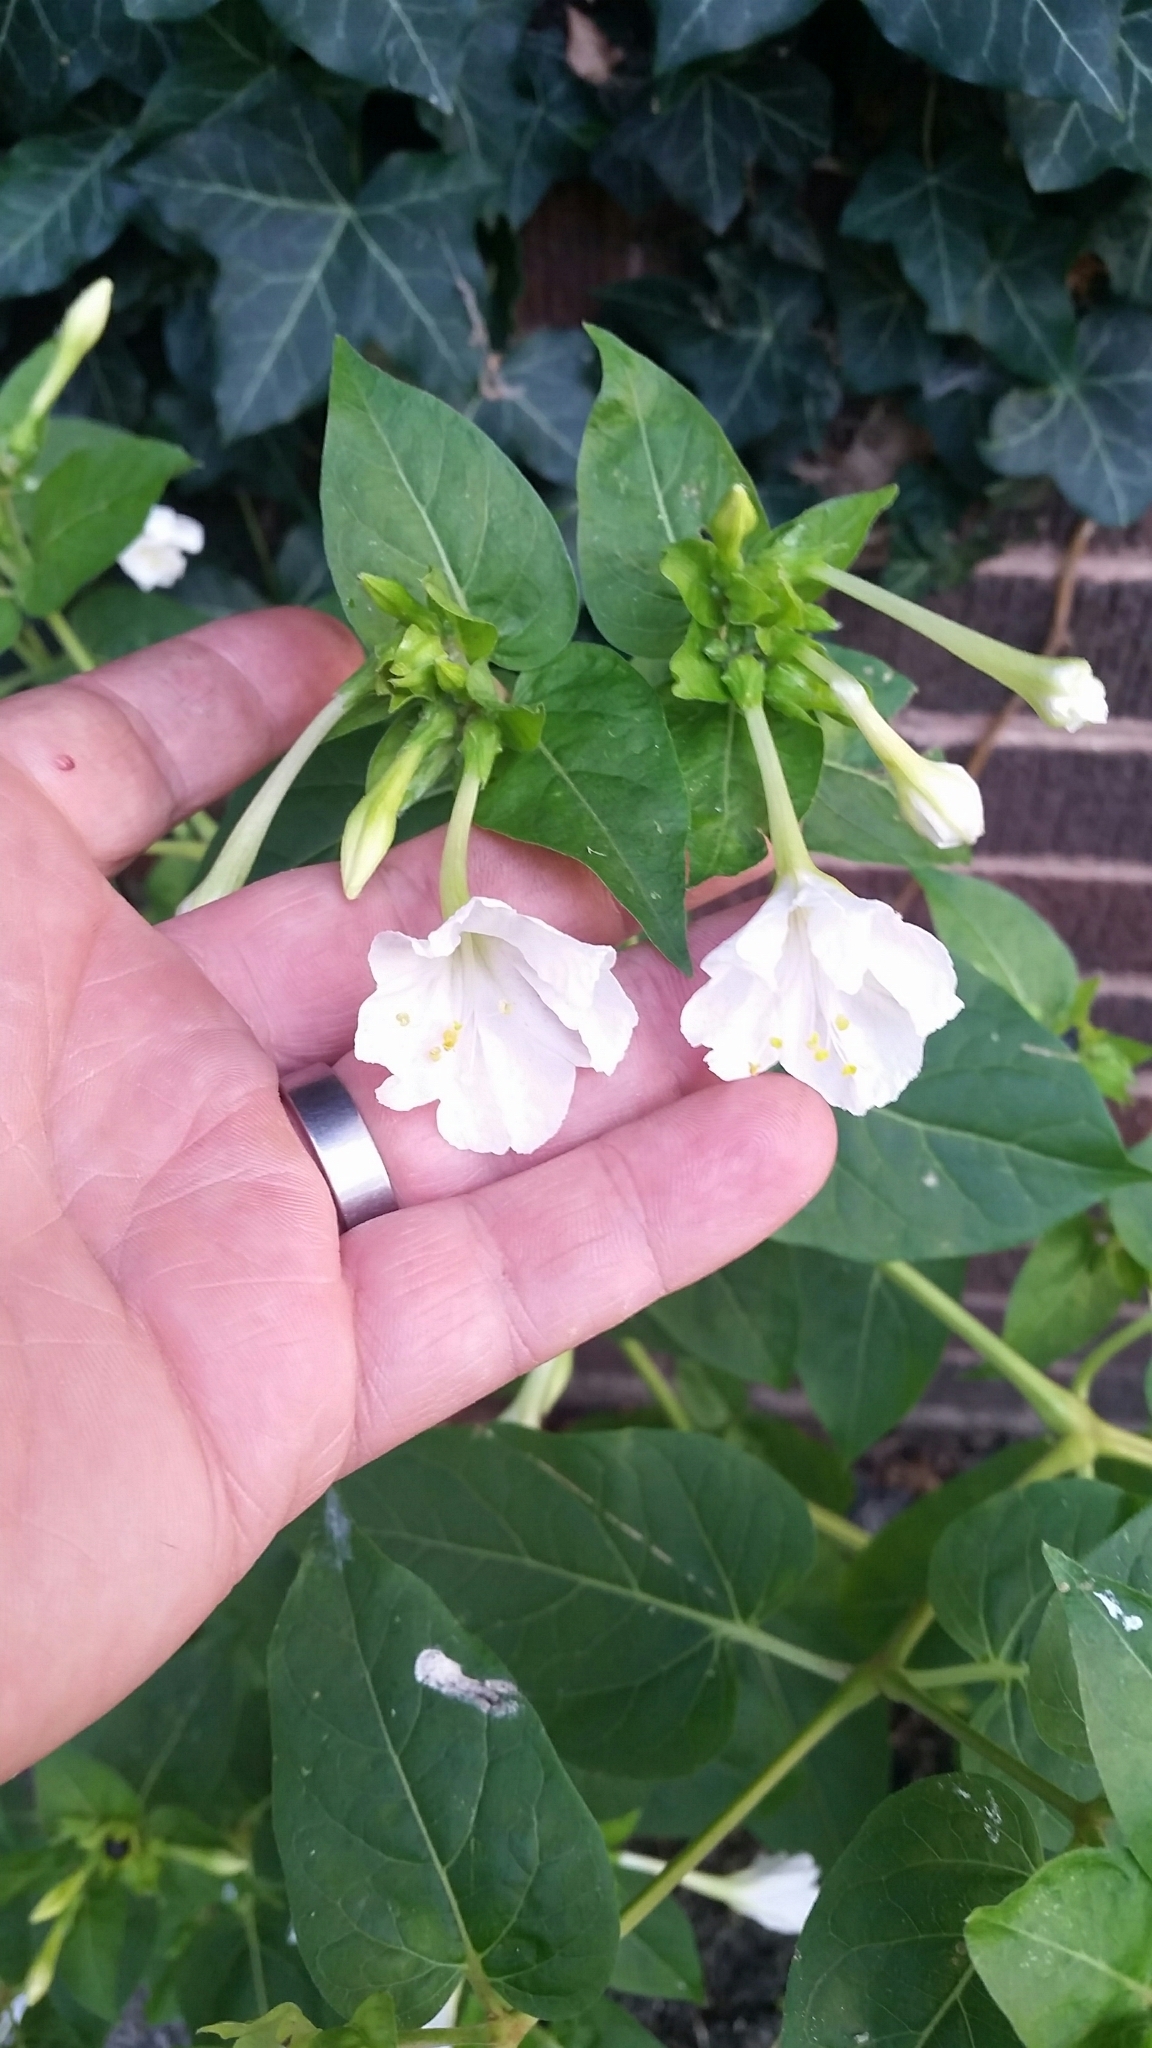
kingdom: Plantae
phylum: Tracheophyta
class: Magnoliopsida
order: Caryophyllales
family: Nyctaginaceae
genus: Mirabilis
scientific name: Mirabilis jalapa
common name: Marvel-of-peru
